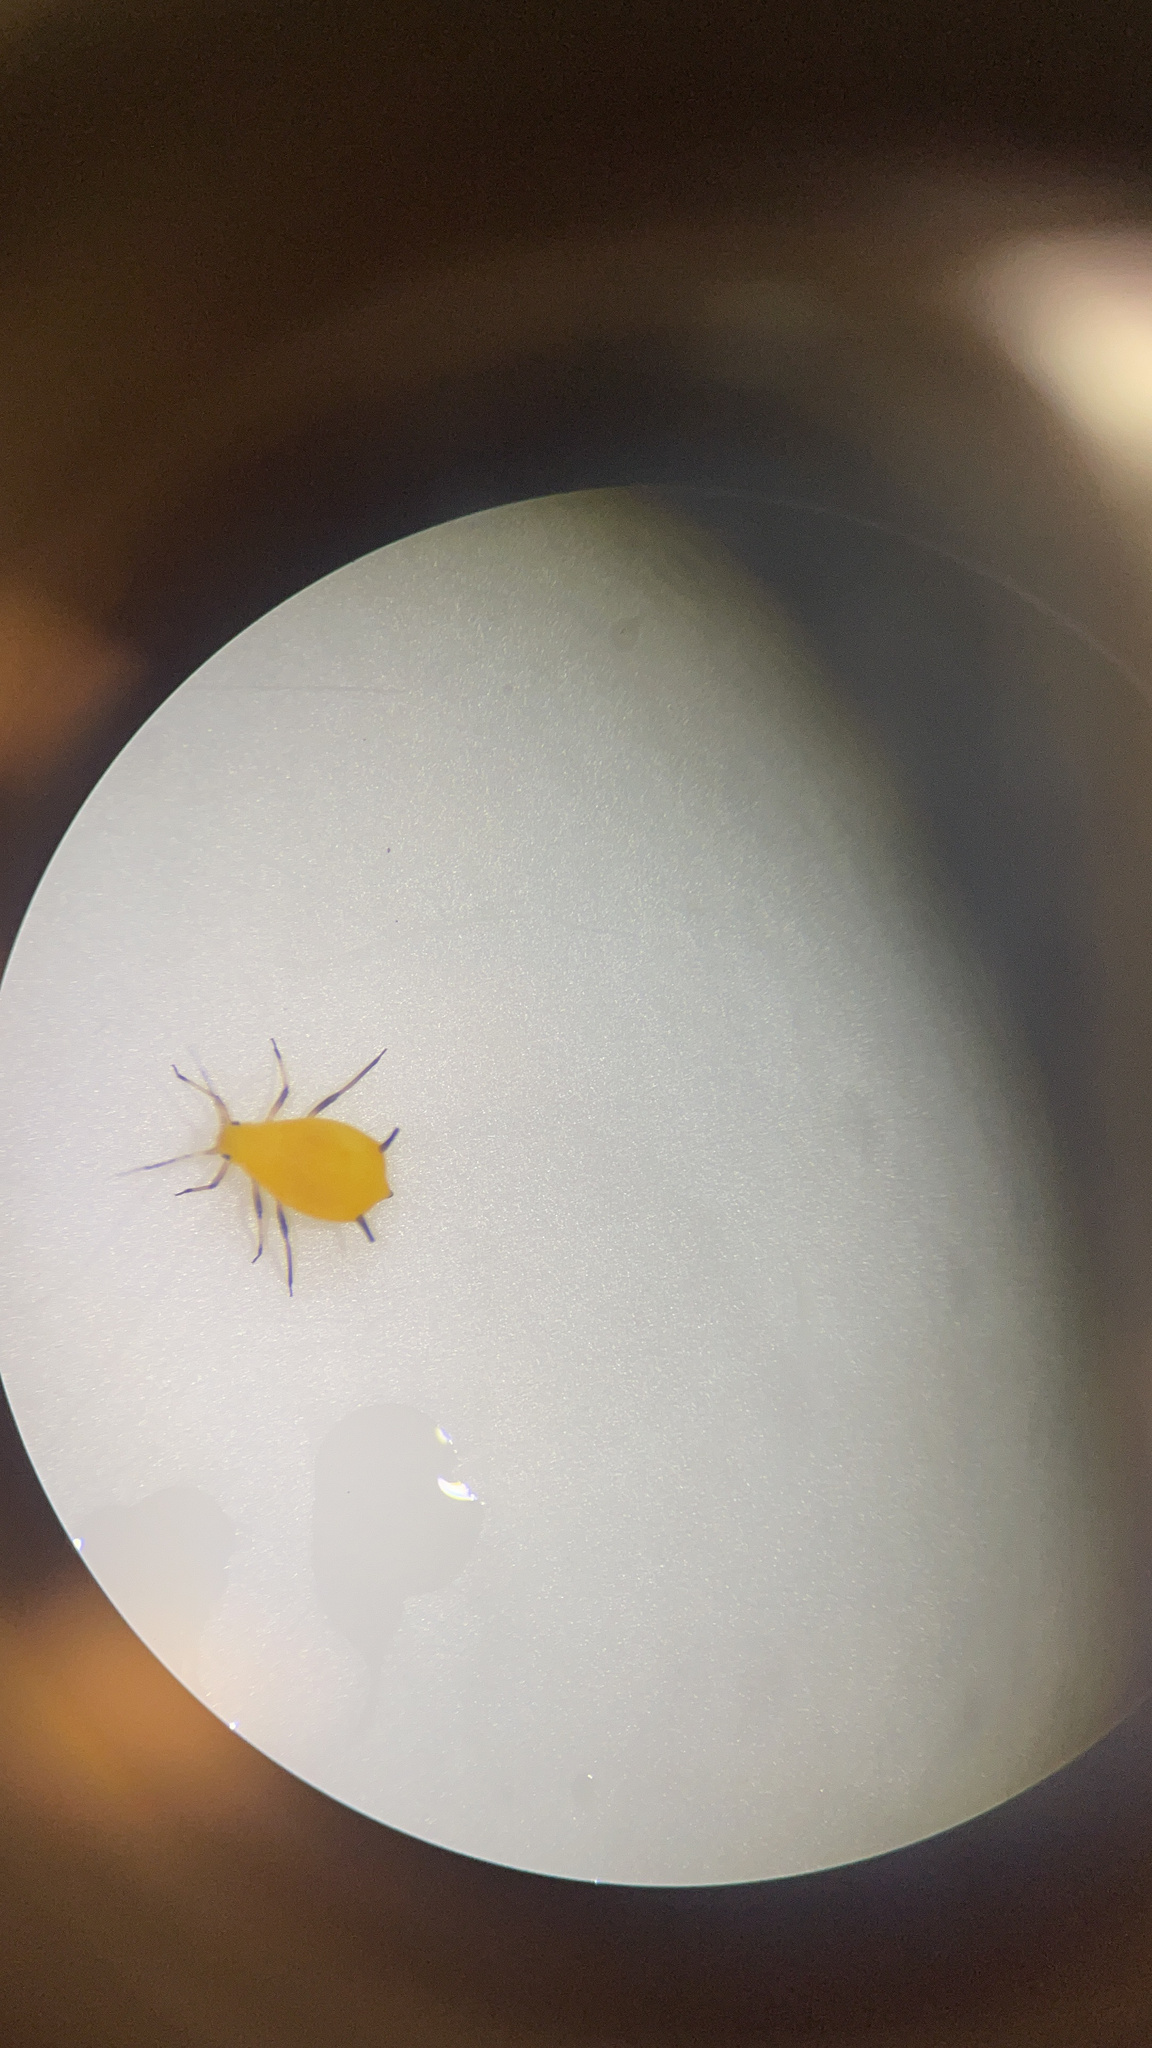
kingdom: Animalia
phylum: Arthropoda
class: Insecta
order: Hemiptera
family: Aphididae
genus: Aphis
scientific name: Aphis nerii
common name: Oleander aphid
